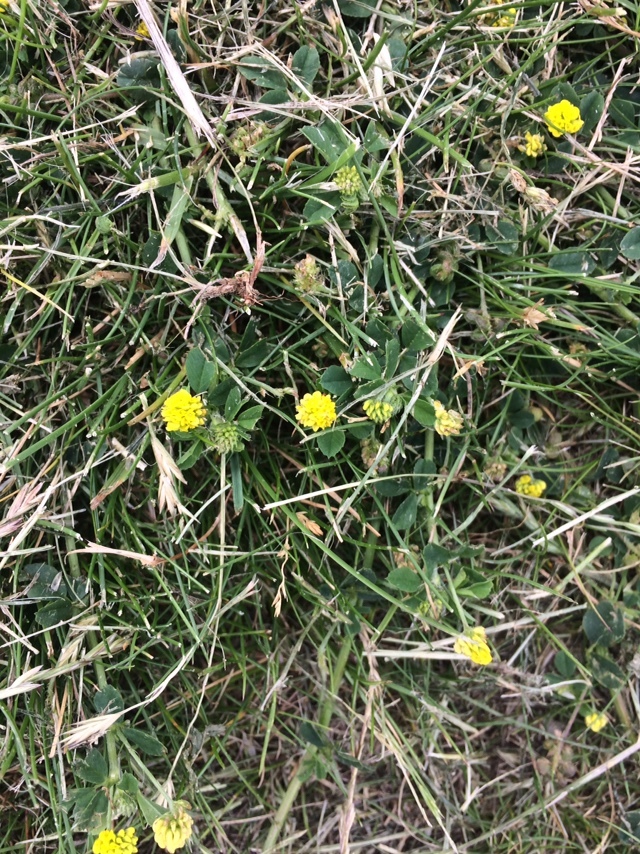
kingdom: Plantae
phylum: Tracheophyta
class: Magnoliopsida
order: Fabales
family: Fabaceae
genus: Medicago
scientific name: Medicago lupulina
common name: Black medick
